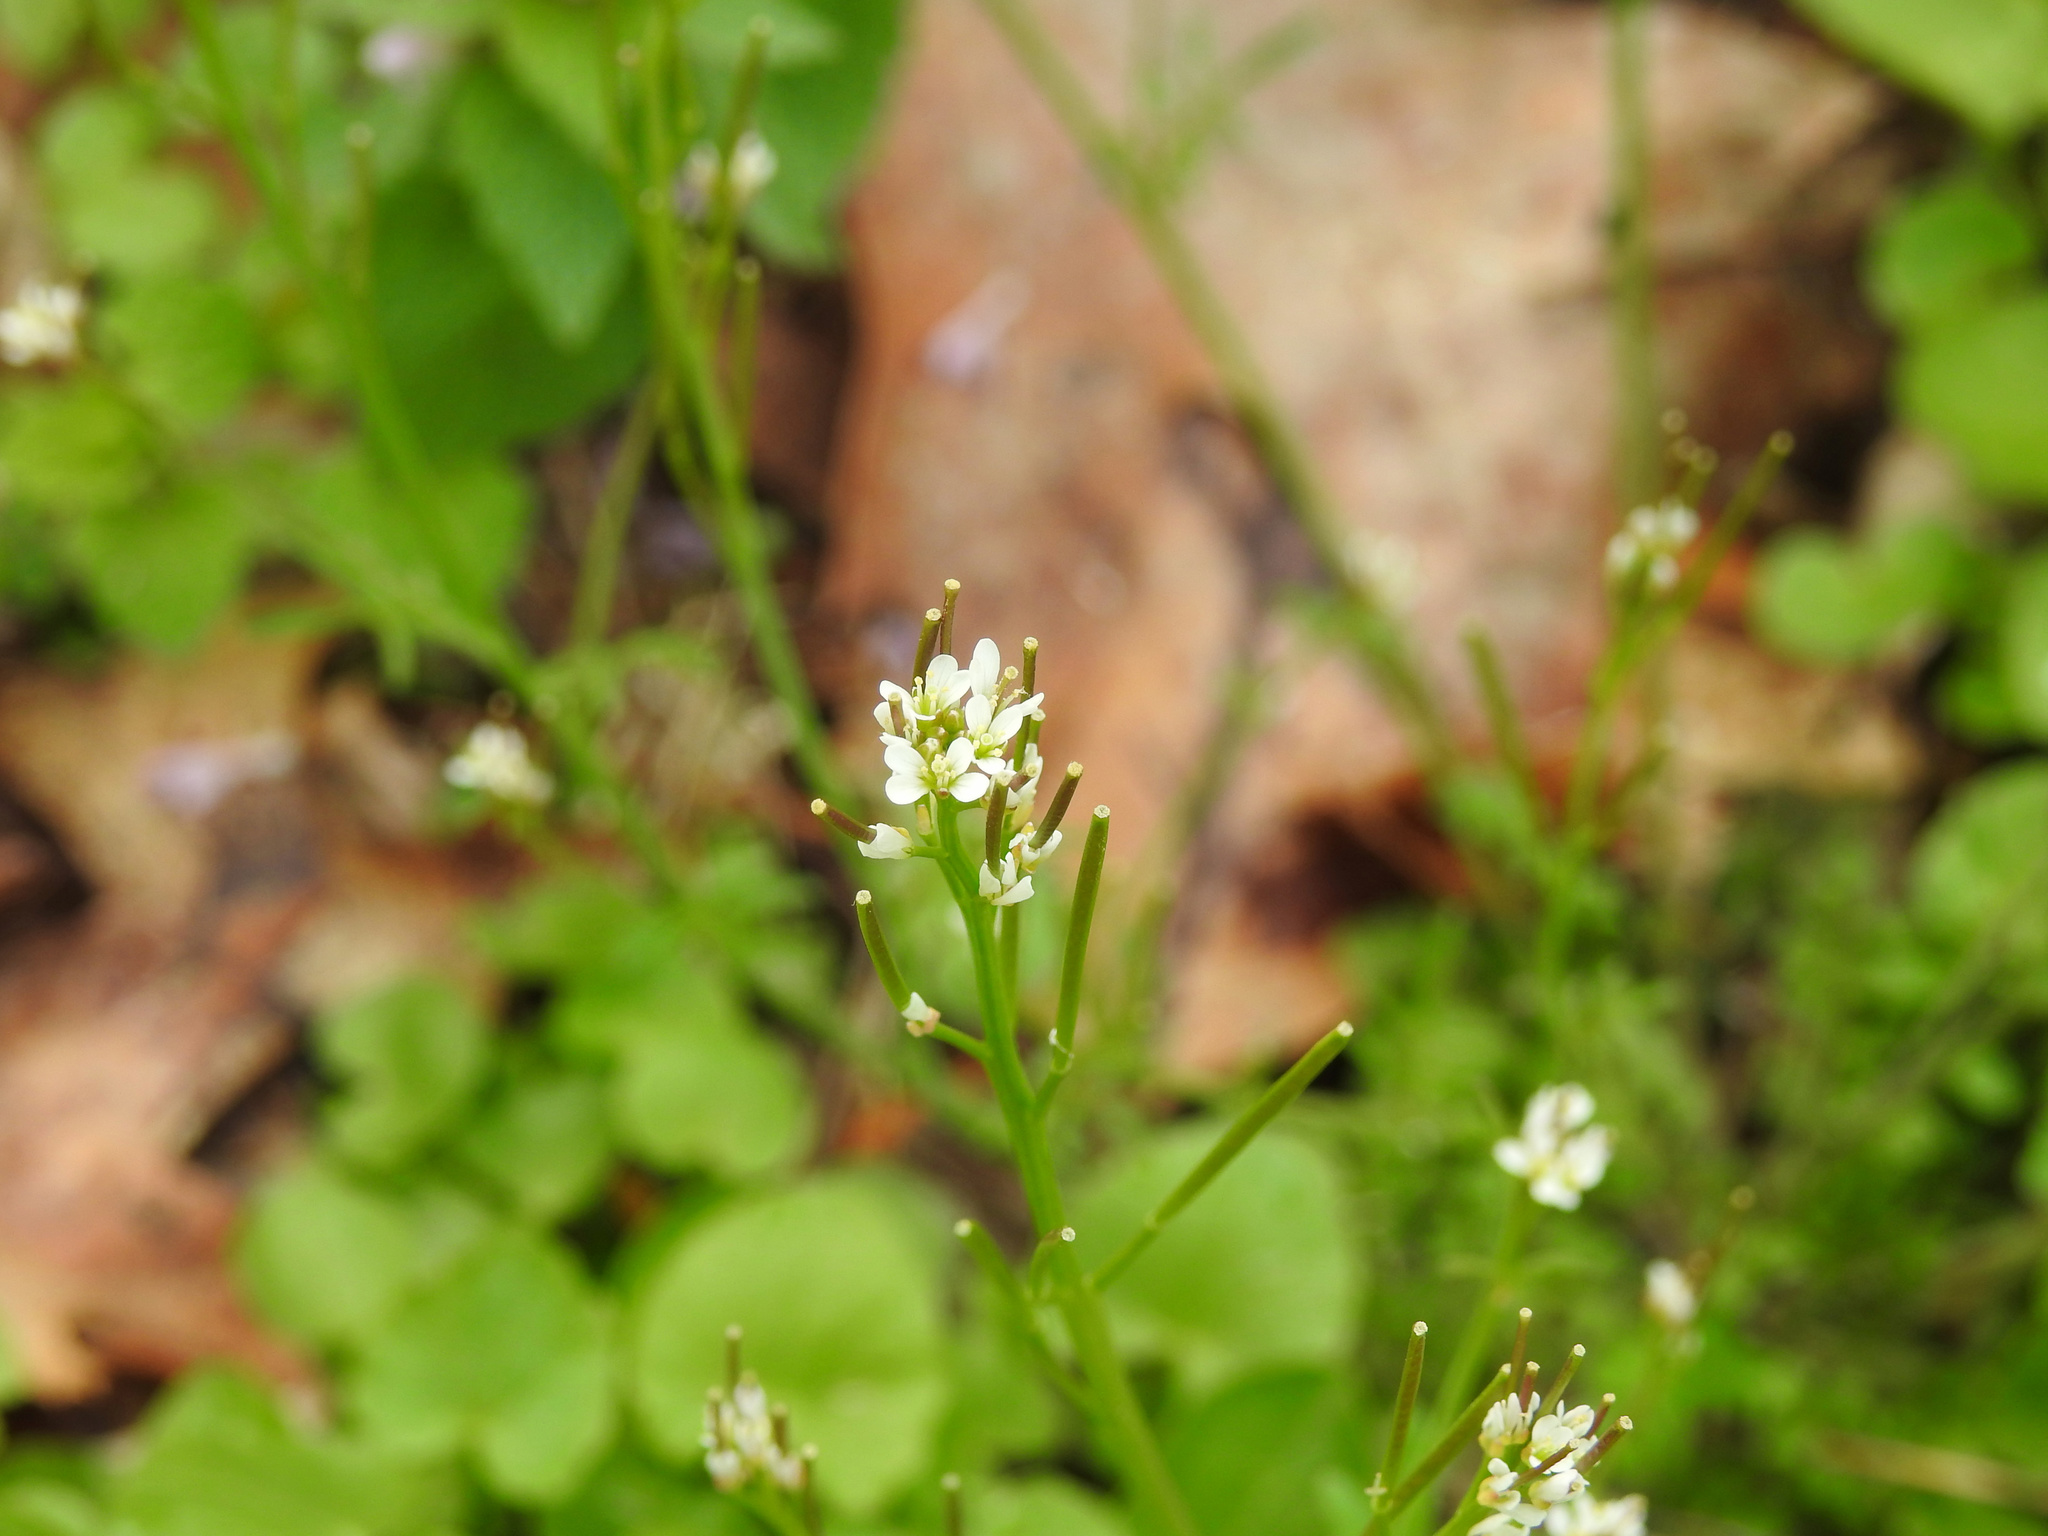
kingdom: Plantae
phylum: Tracheophyta
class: Magnoliopsida
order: Brassicales
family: Brassicaceae
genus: Cardamine
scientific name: Cardamine hirsuta
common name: Hairy bittercress
